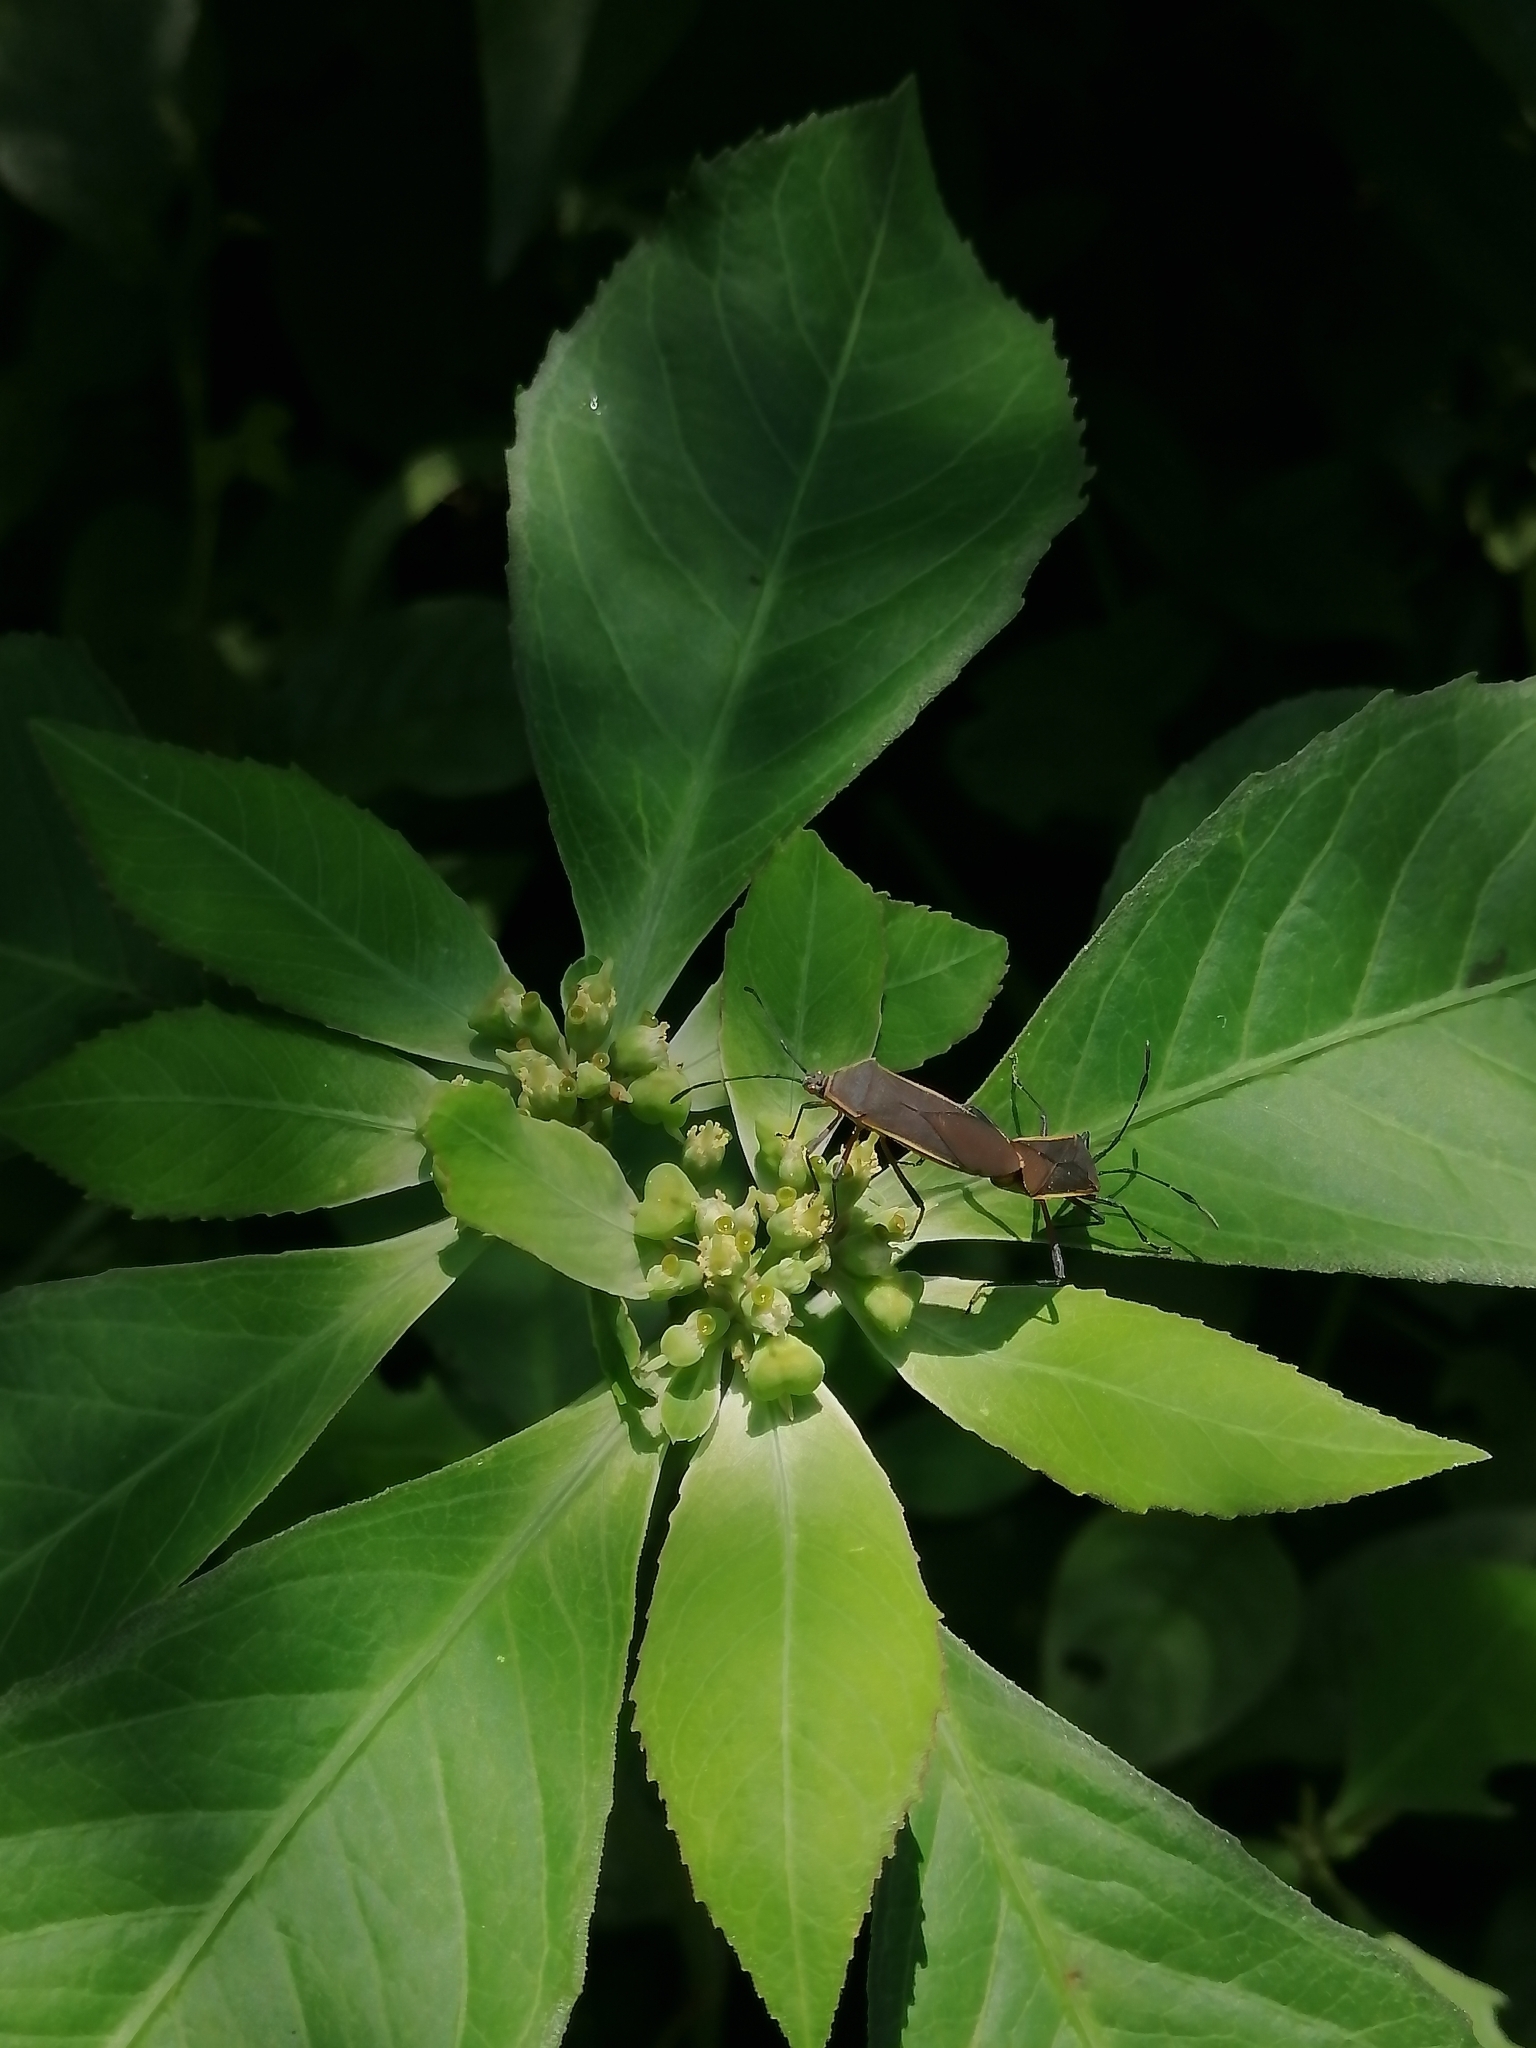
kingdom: Animalia
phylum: Arthropoda
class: Insecta
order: Hemiptera
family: Coreidae
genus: Staluptus
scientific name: Staluptus marginalis
